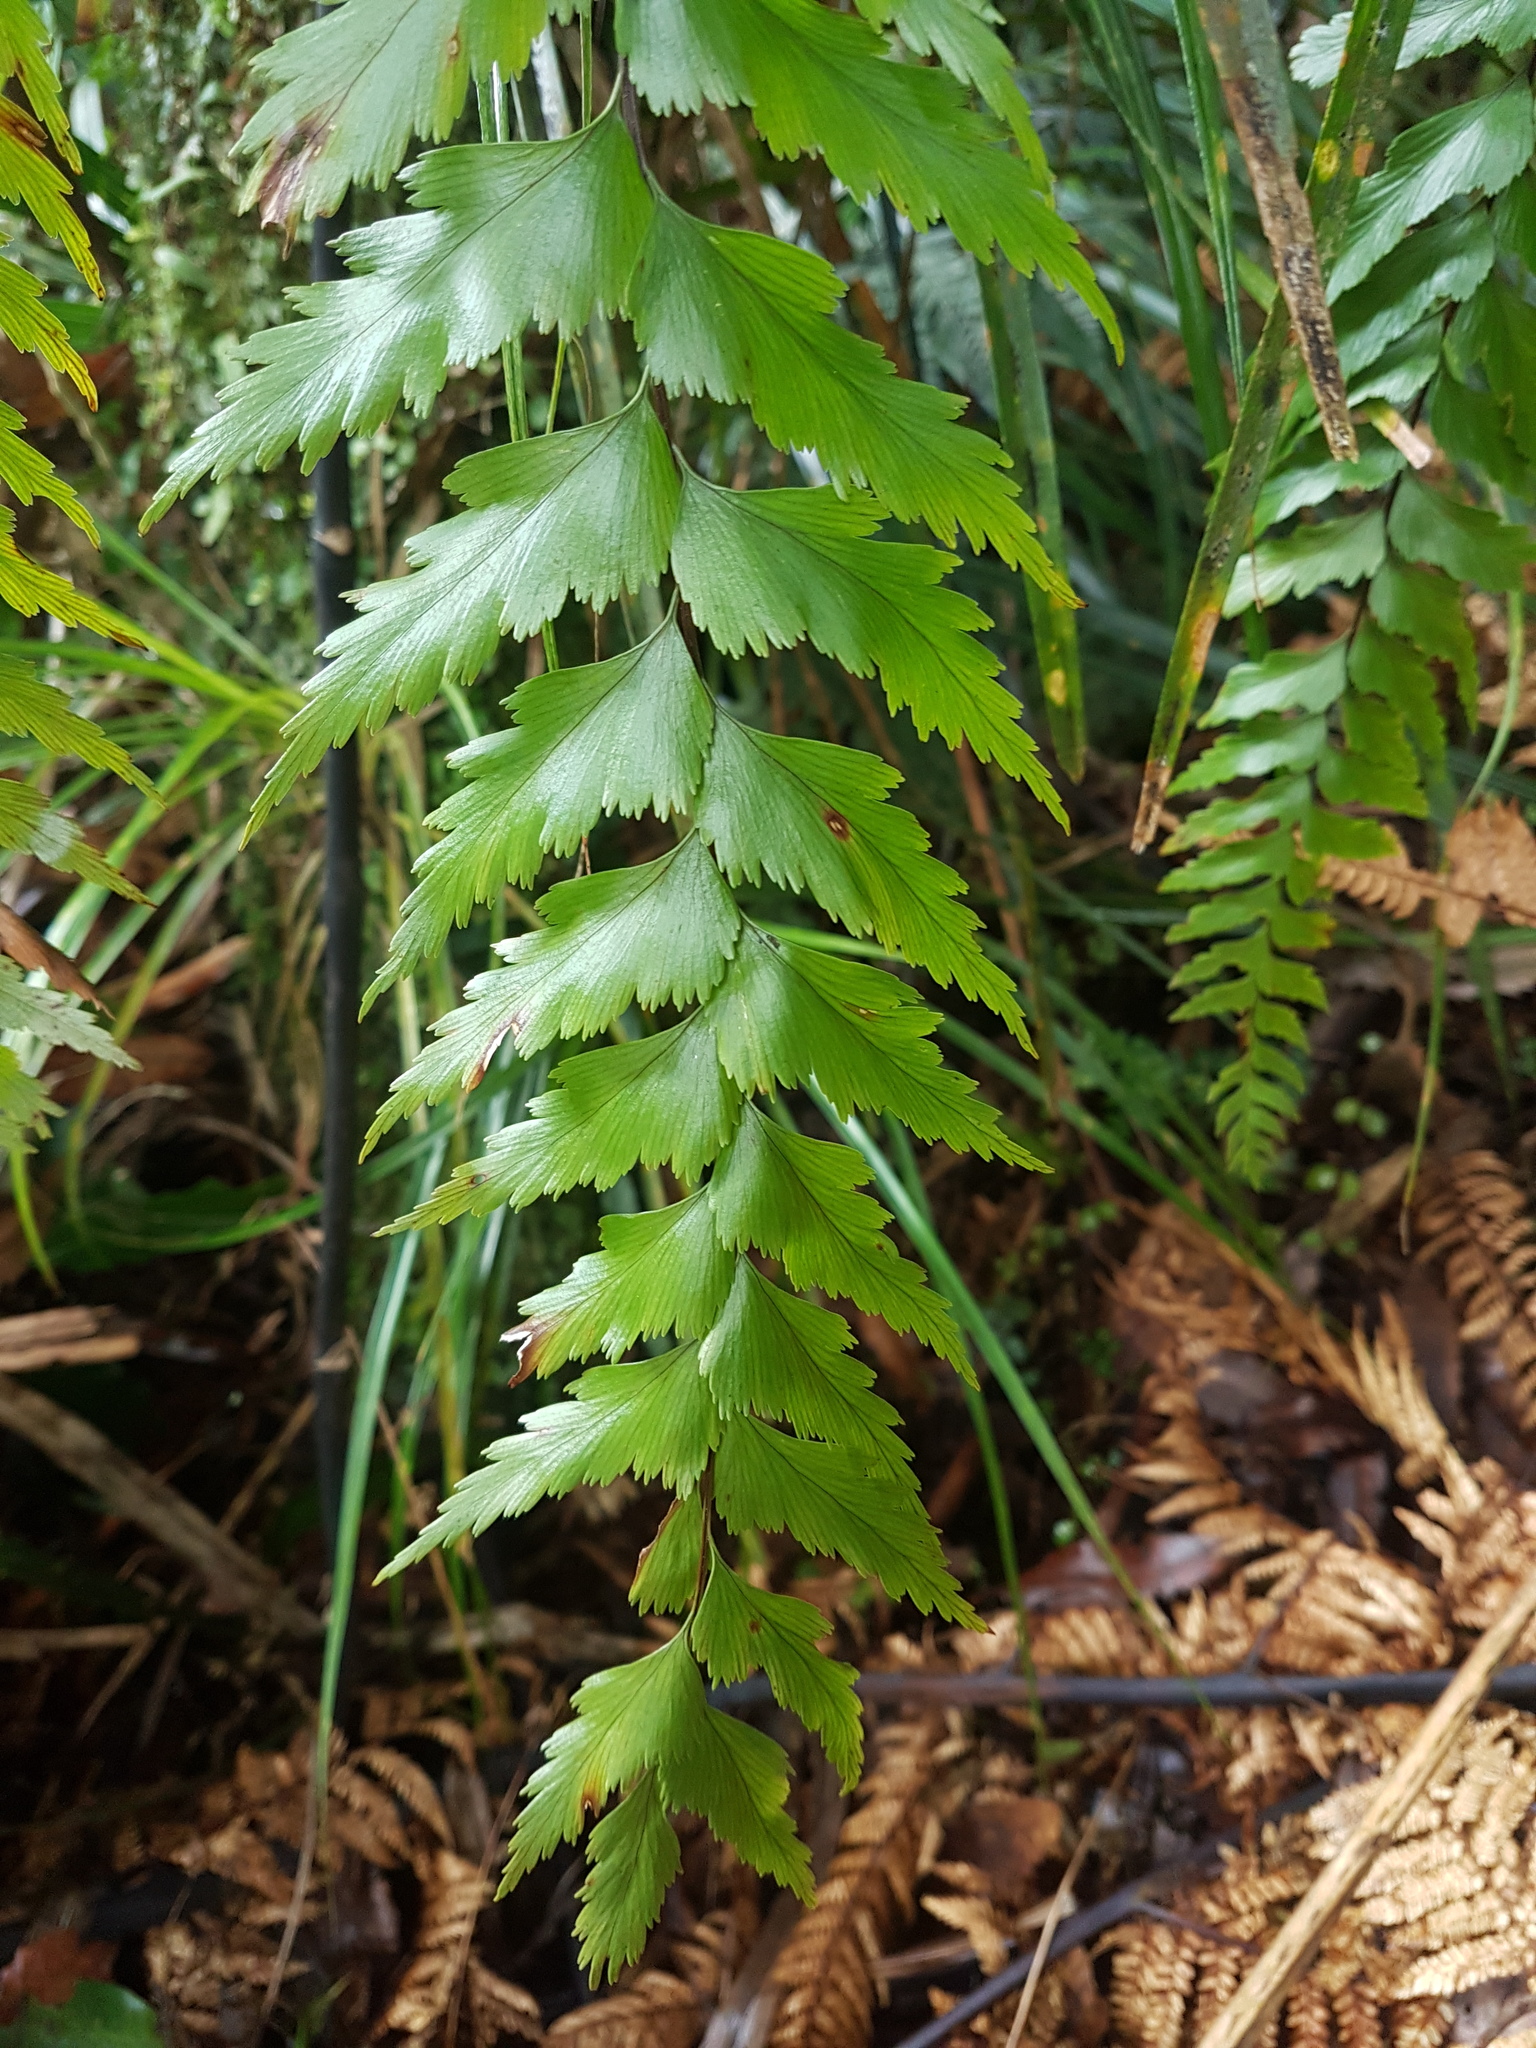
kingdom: Plantae
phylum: Tracheophyta
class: Polypodiopsida
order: Polypodiales
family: Aspleniaceae
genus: Asplenium
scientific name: Asplenium polyodon
